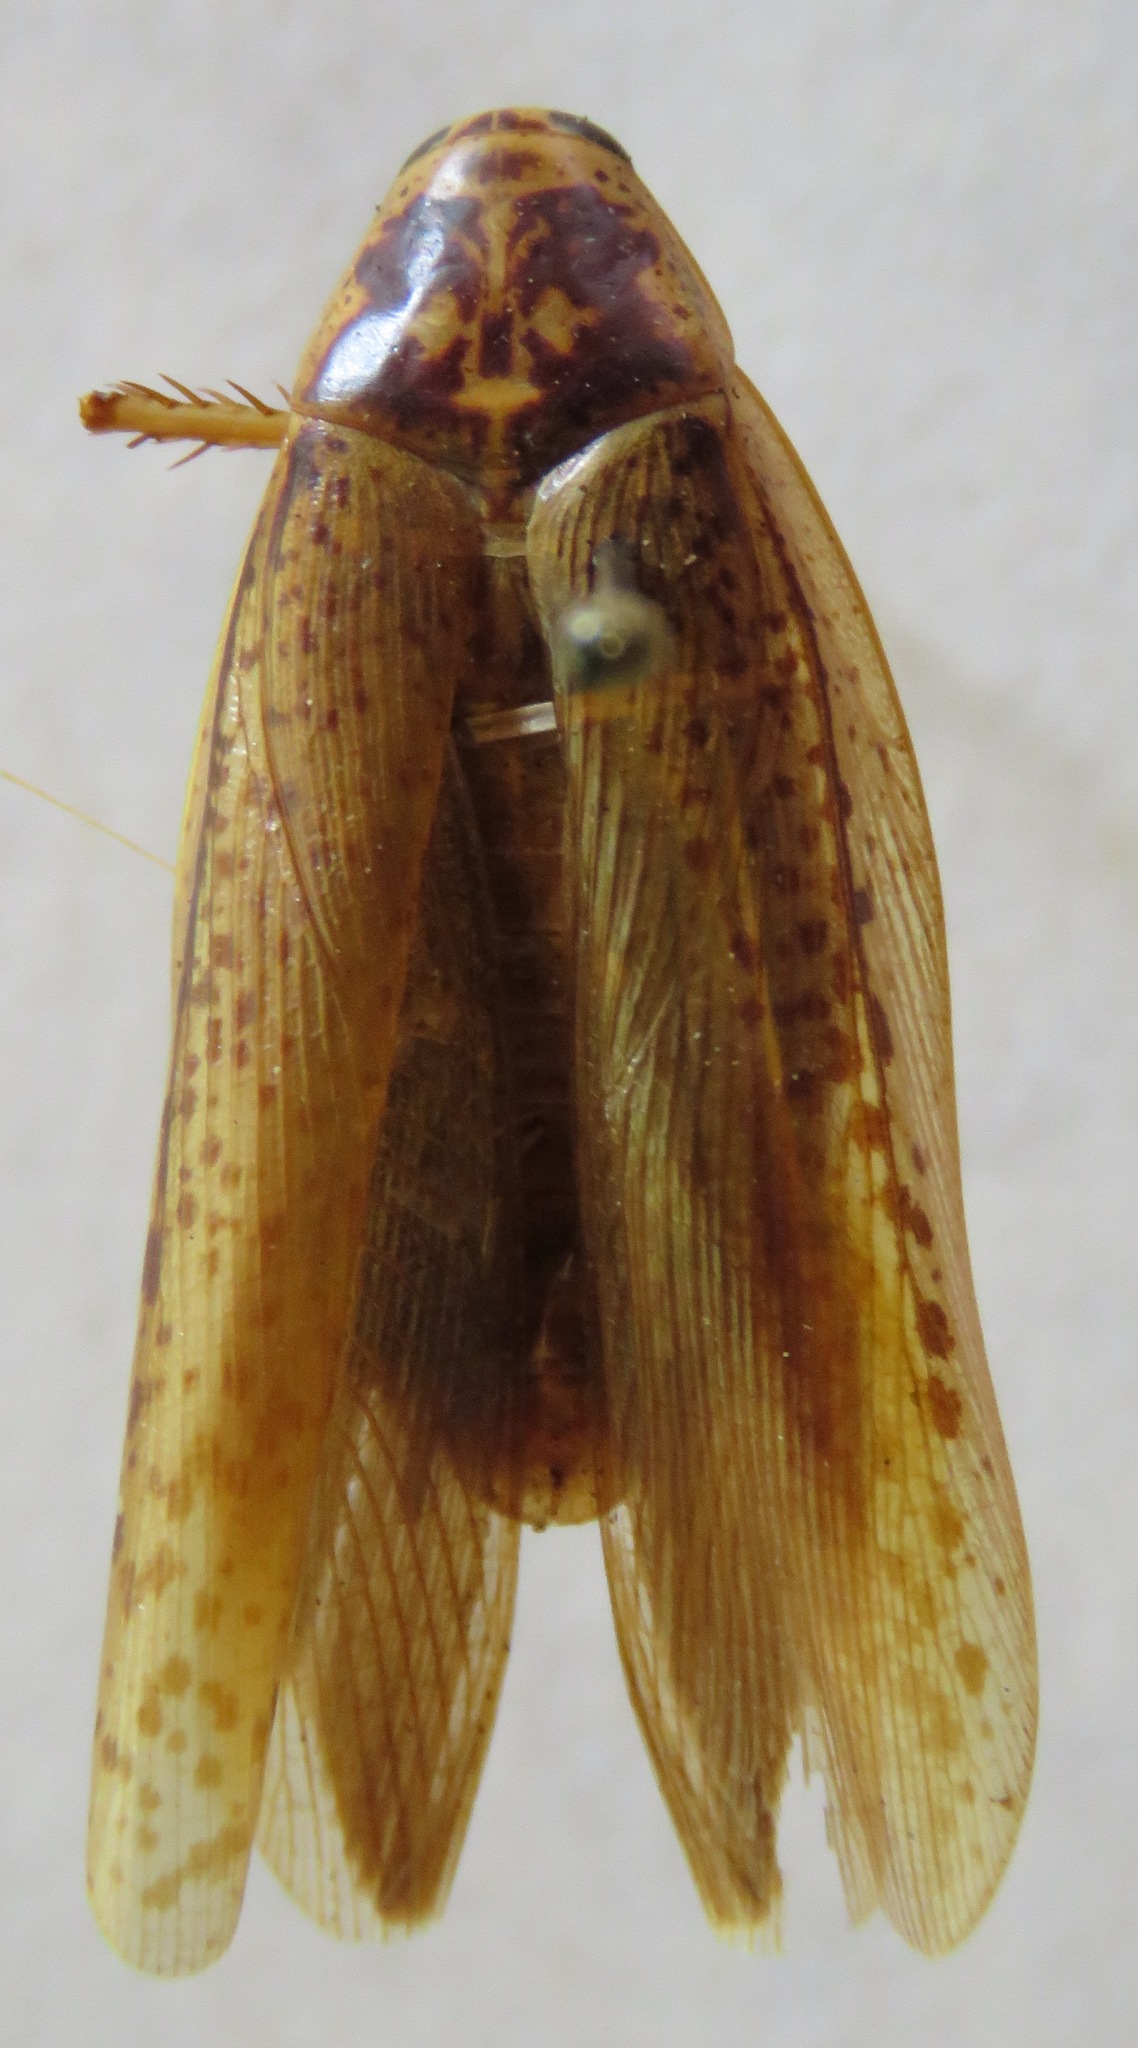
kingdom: Animalia
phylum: Arthropoda
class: Insecta
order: Blattodea
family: Blaberidae
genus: Epilampra
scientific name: Epilampra mexicana
